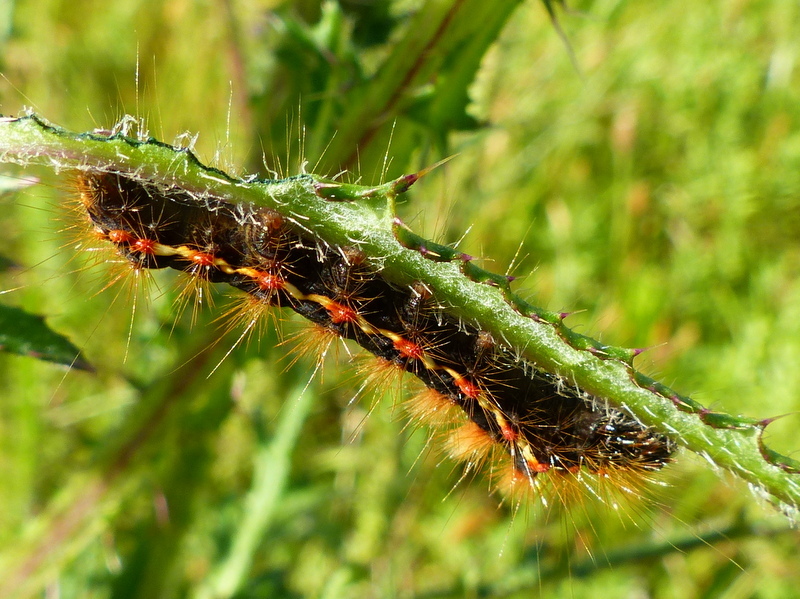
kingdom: Animalia
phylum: Arthropoda
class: Insecta
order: Lepidoptera
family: Noctuidae
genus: Acronicta
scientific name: Acronicta rumicis
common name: Knot grass
